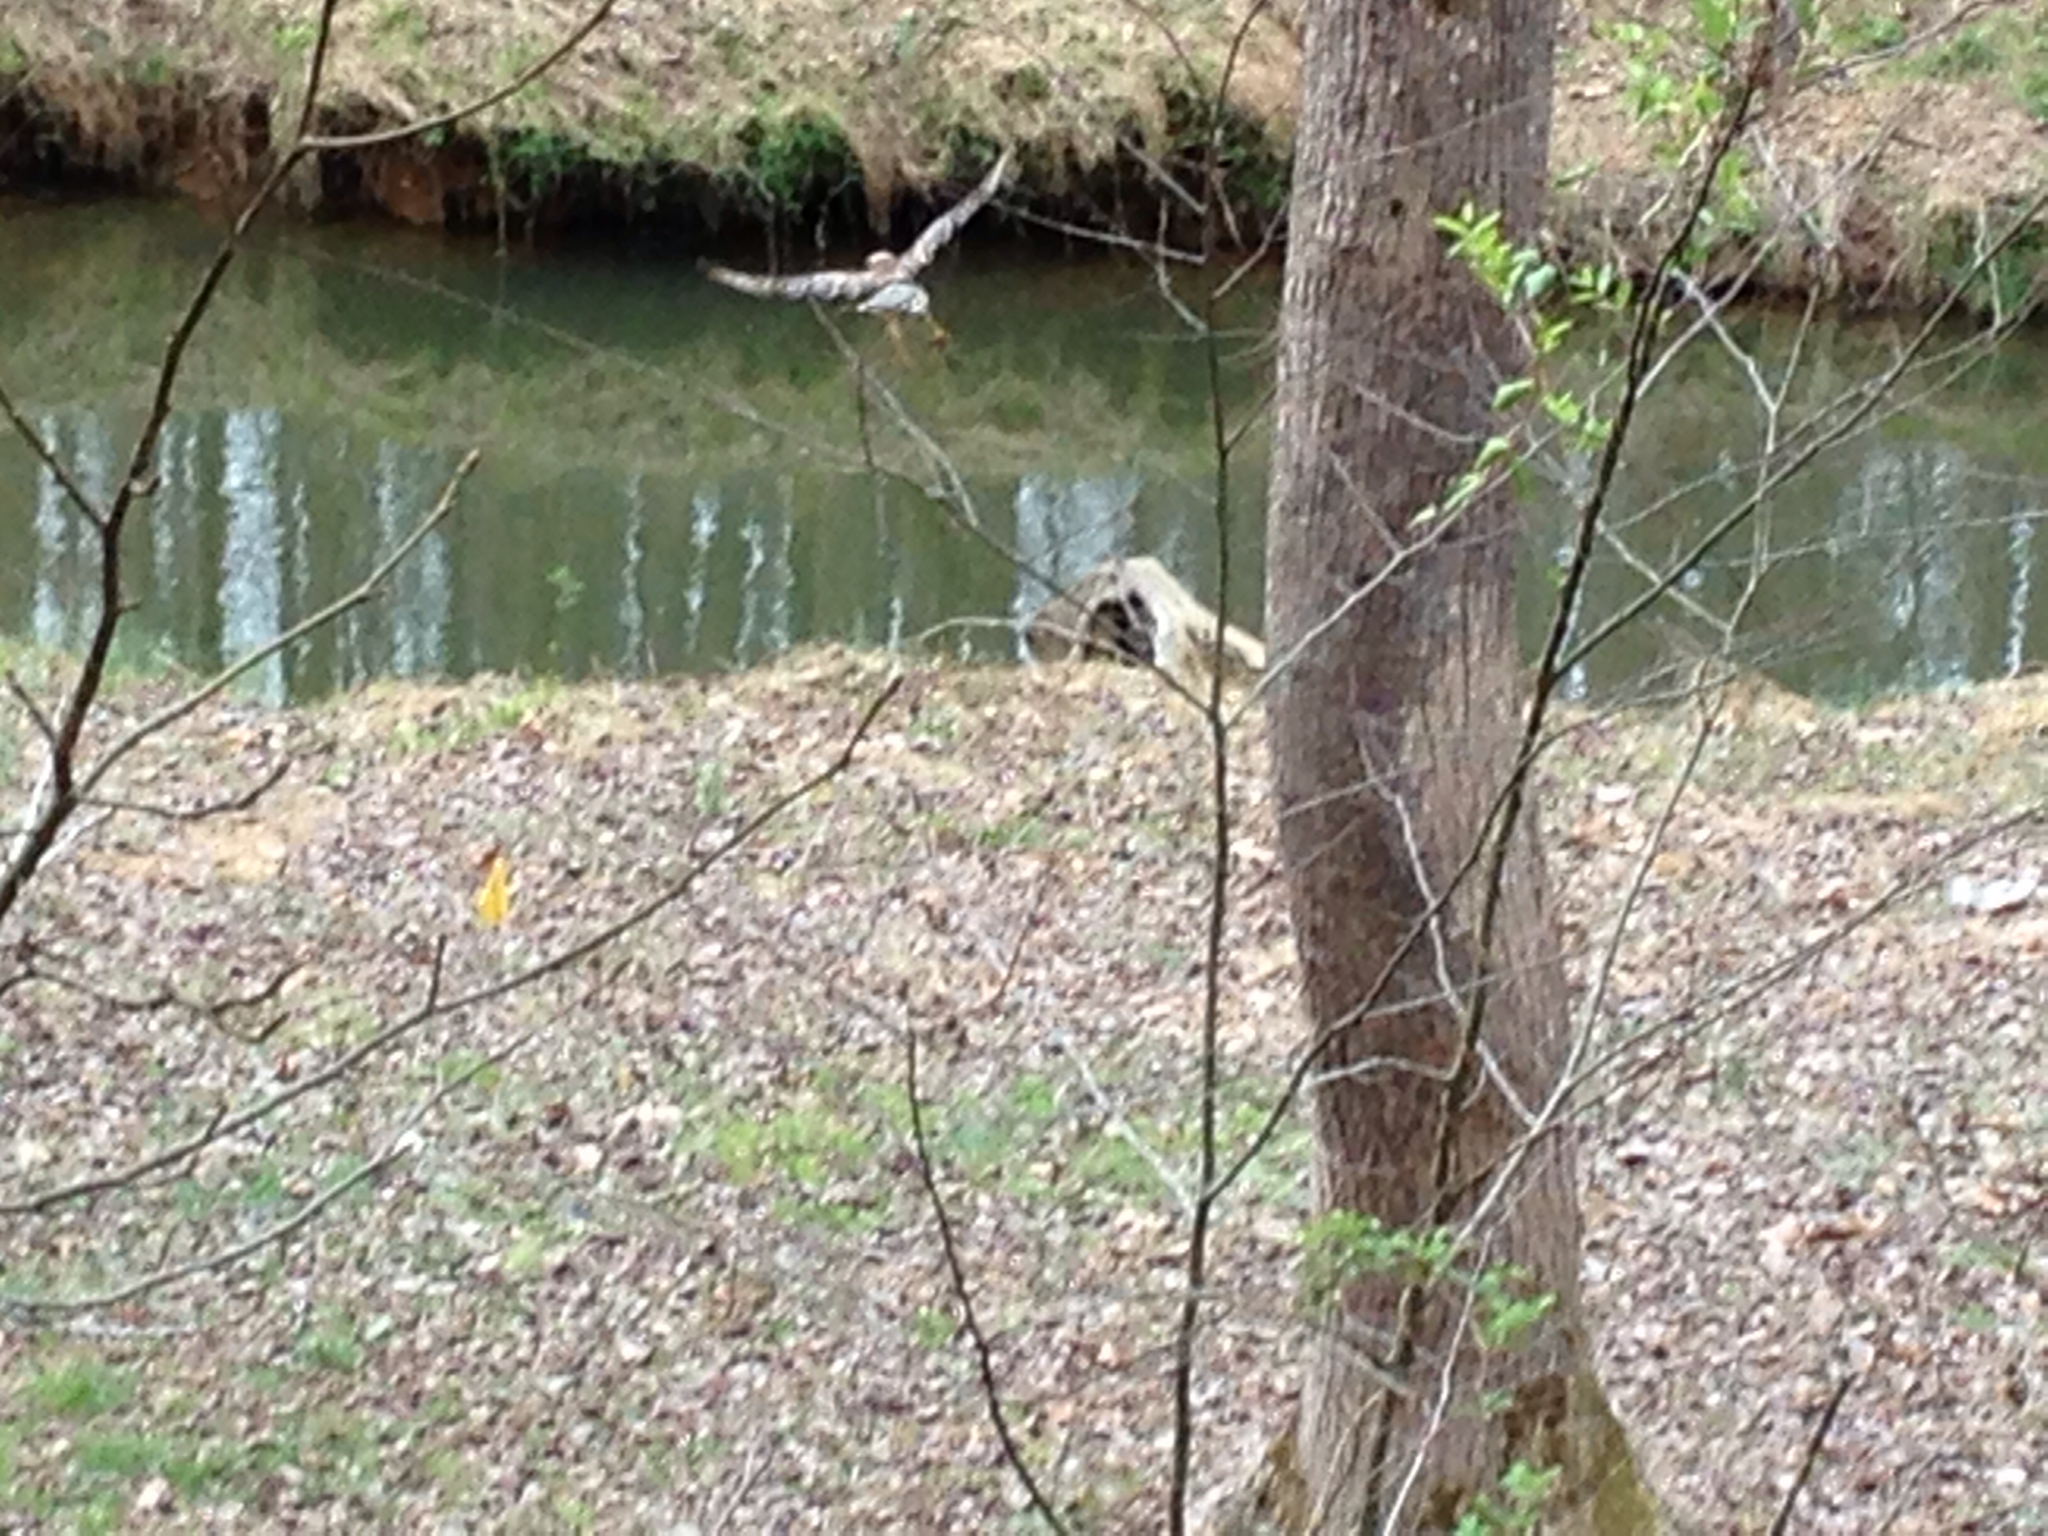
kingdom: Animalia
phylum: Chordata
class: Aves
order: Accipitriformes
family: Accipitridae
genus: Buteo
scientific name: Buteo lineatus
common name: Red-shouldered hawk
